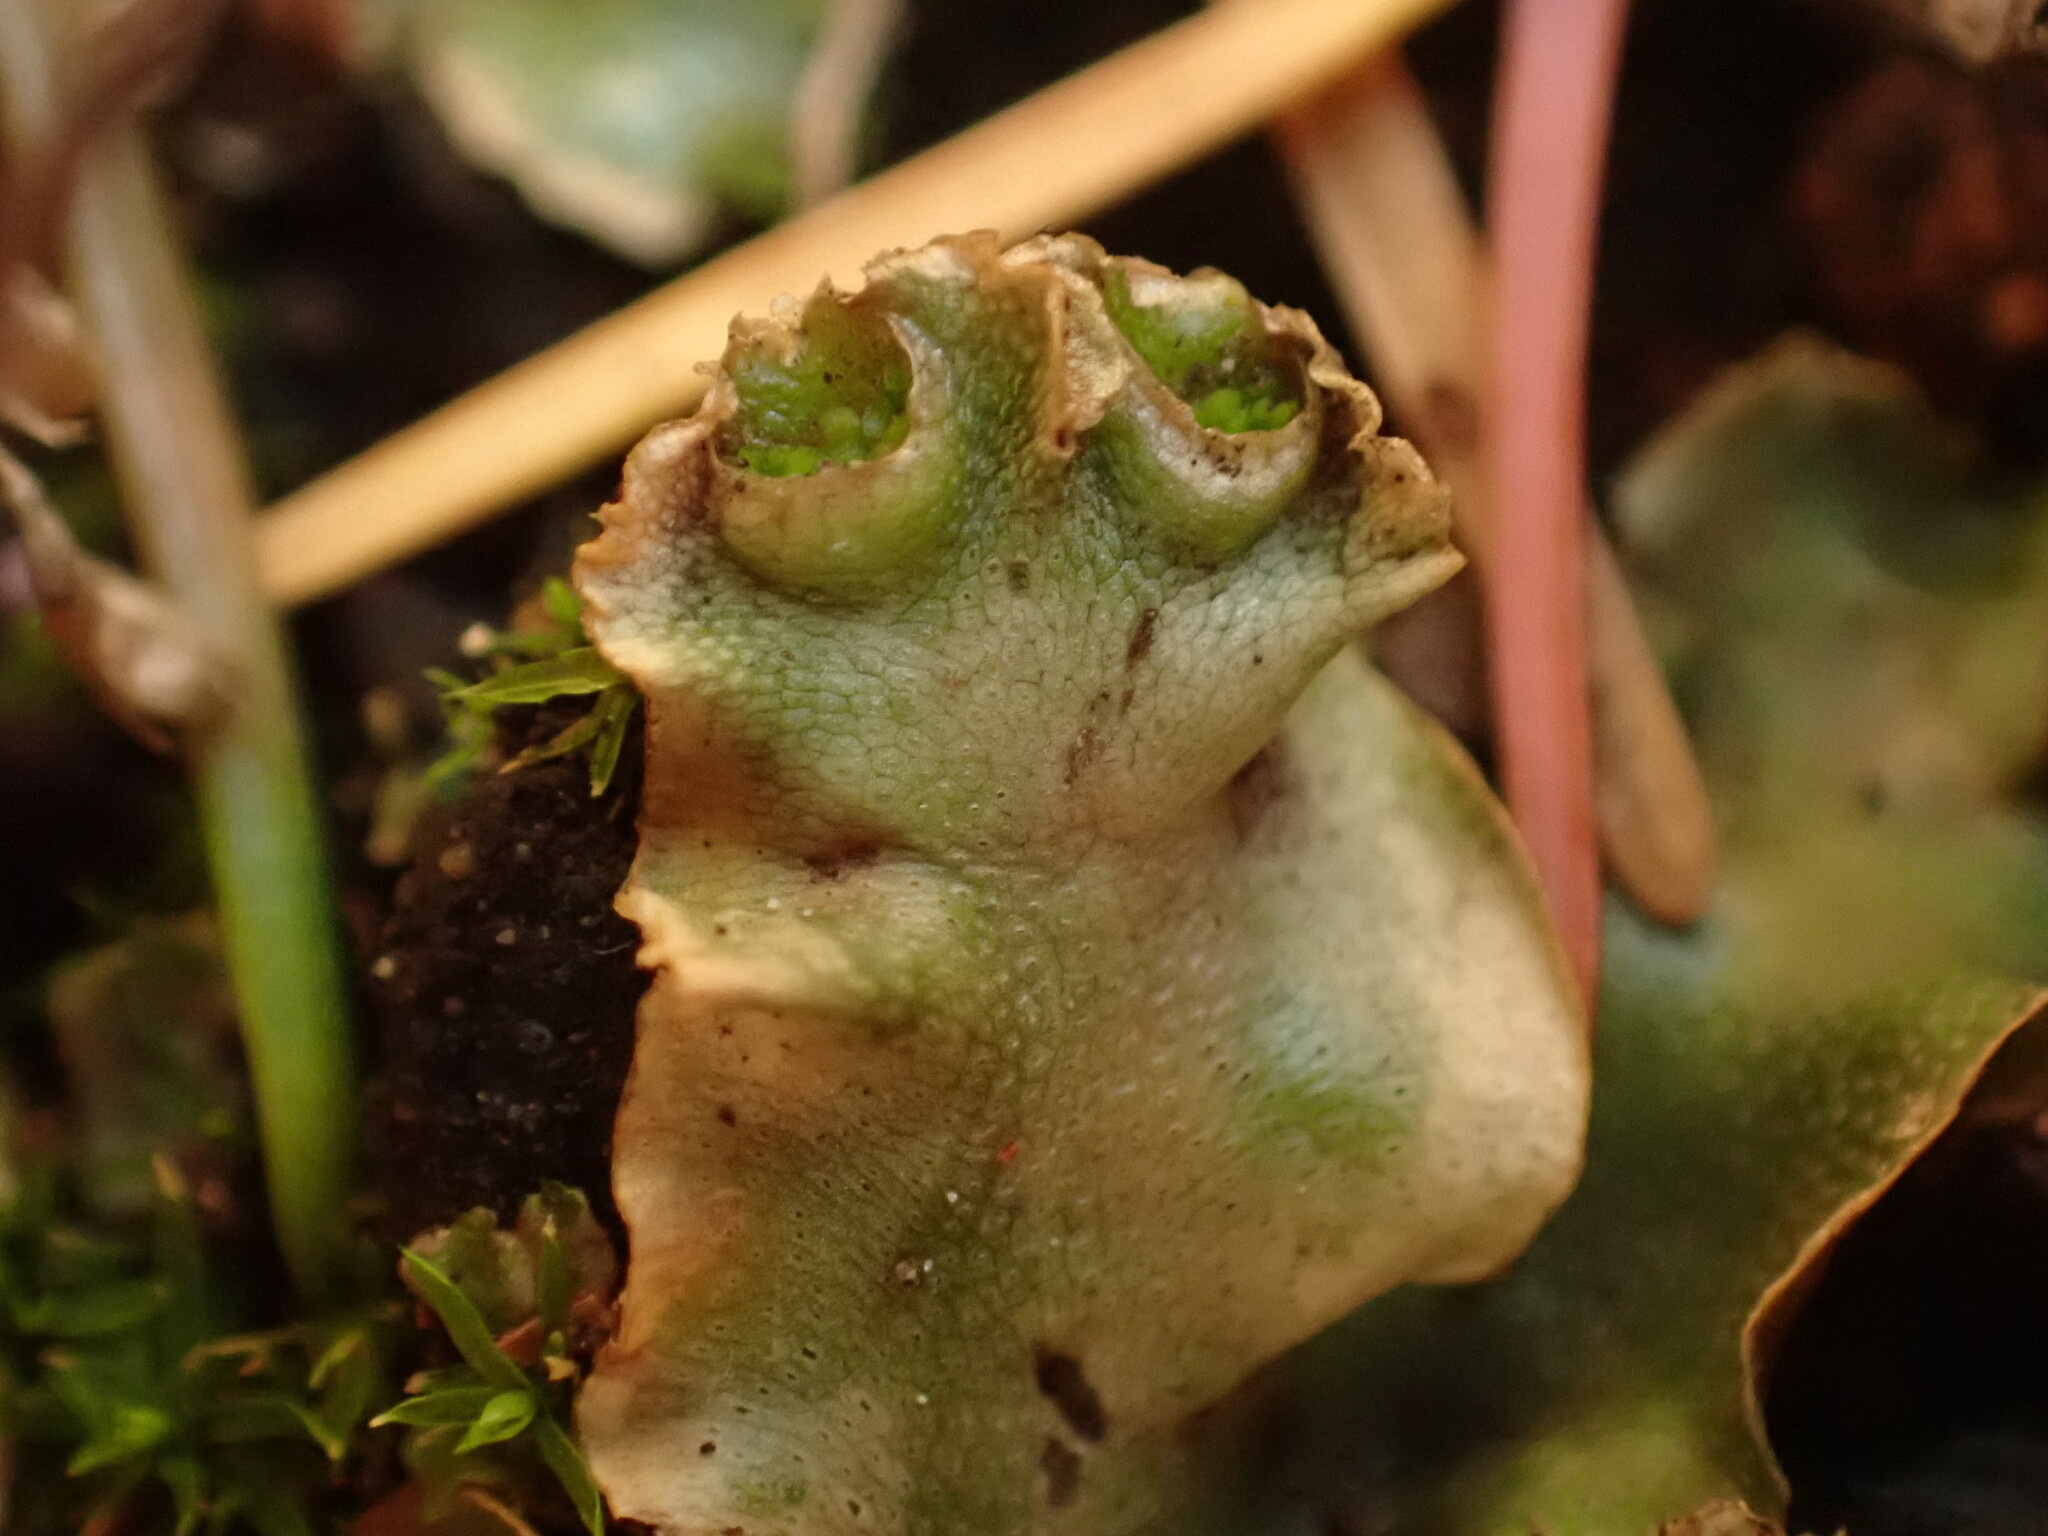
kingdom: Plantae
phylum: Marchantiophyta
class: Marchantiopsida
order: Lunulariales
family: Lunulariaceae
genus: Lunularia
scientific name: Lunularia cruciata
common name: Crescent-cup liverwort
